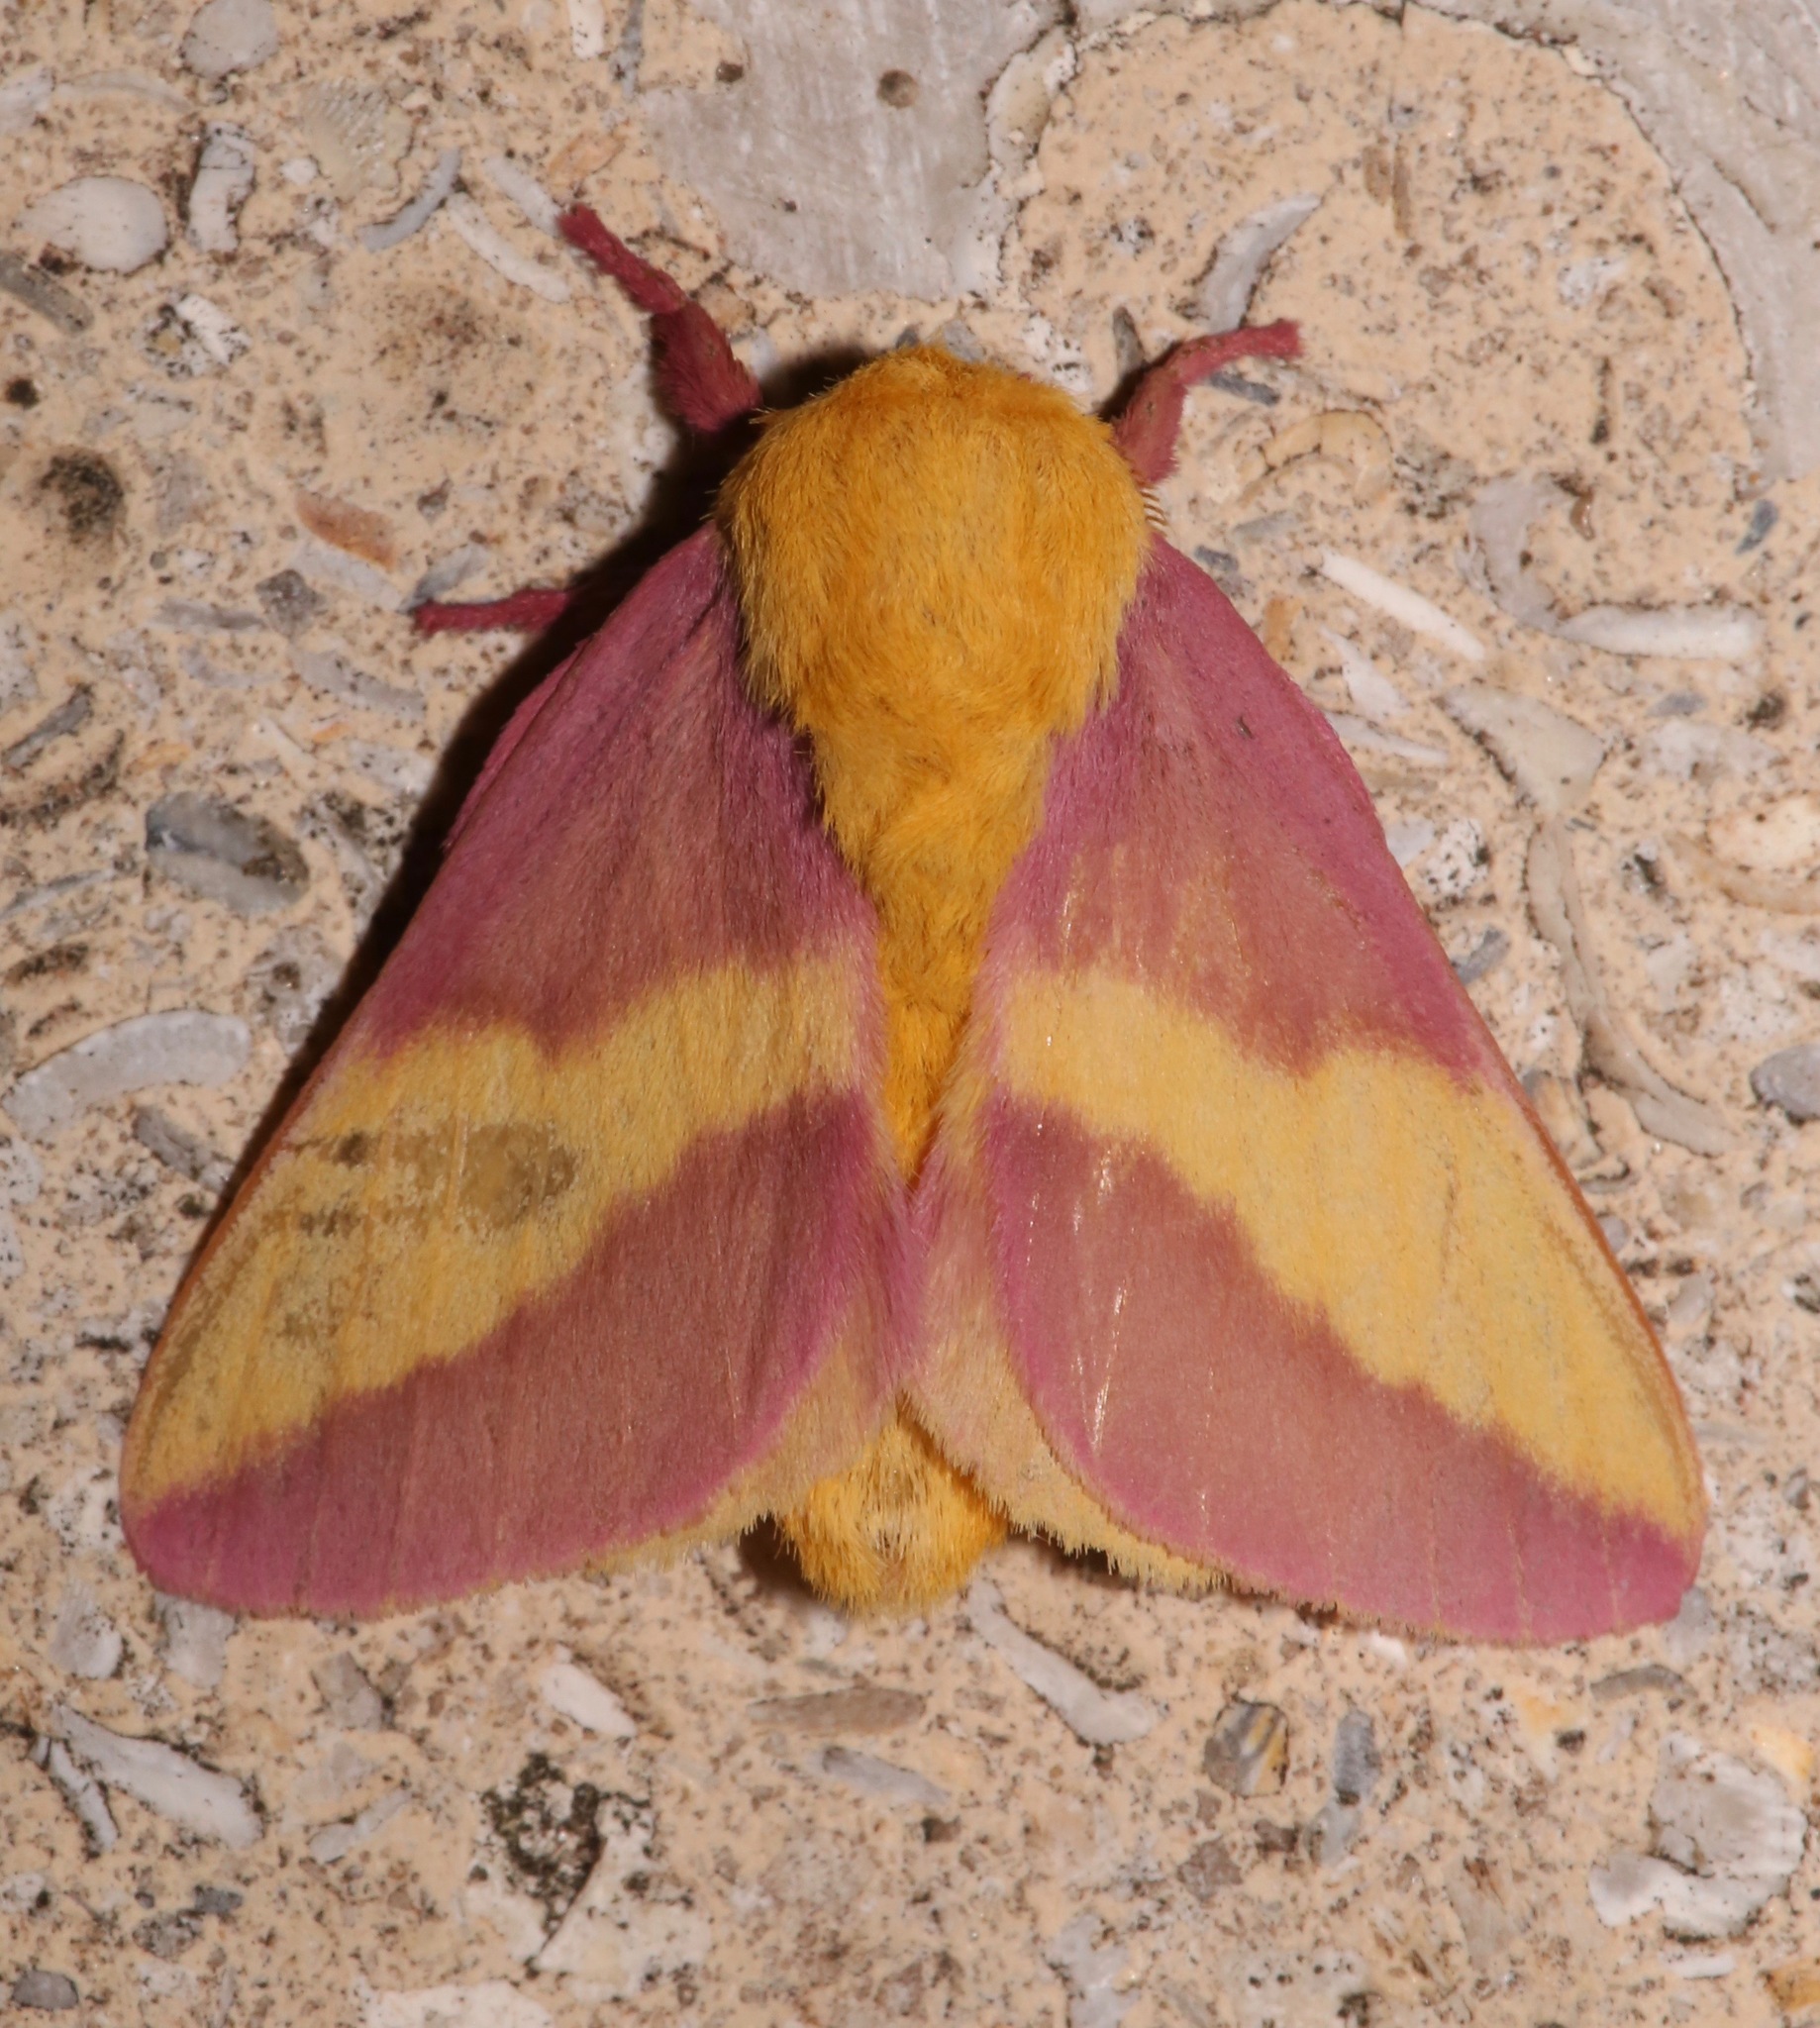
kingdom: Animalia
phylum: Arthropoda
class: Insecta
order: Lepidoptera
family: Saturniidae
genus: Dryocampa
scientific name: Dryocampa rubicunda
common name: Rosy maple moth
